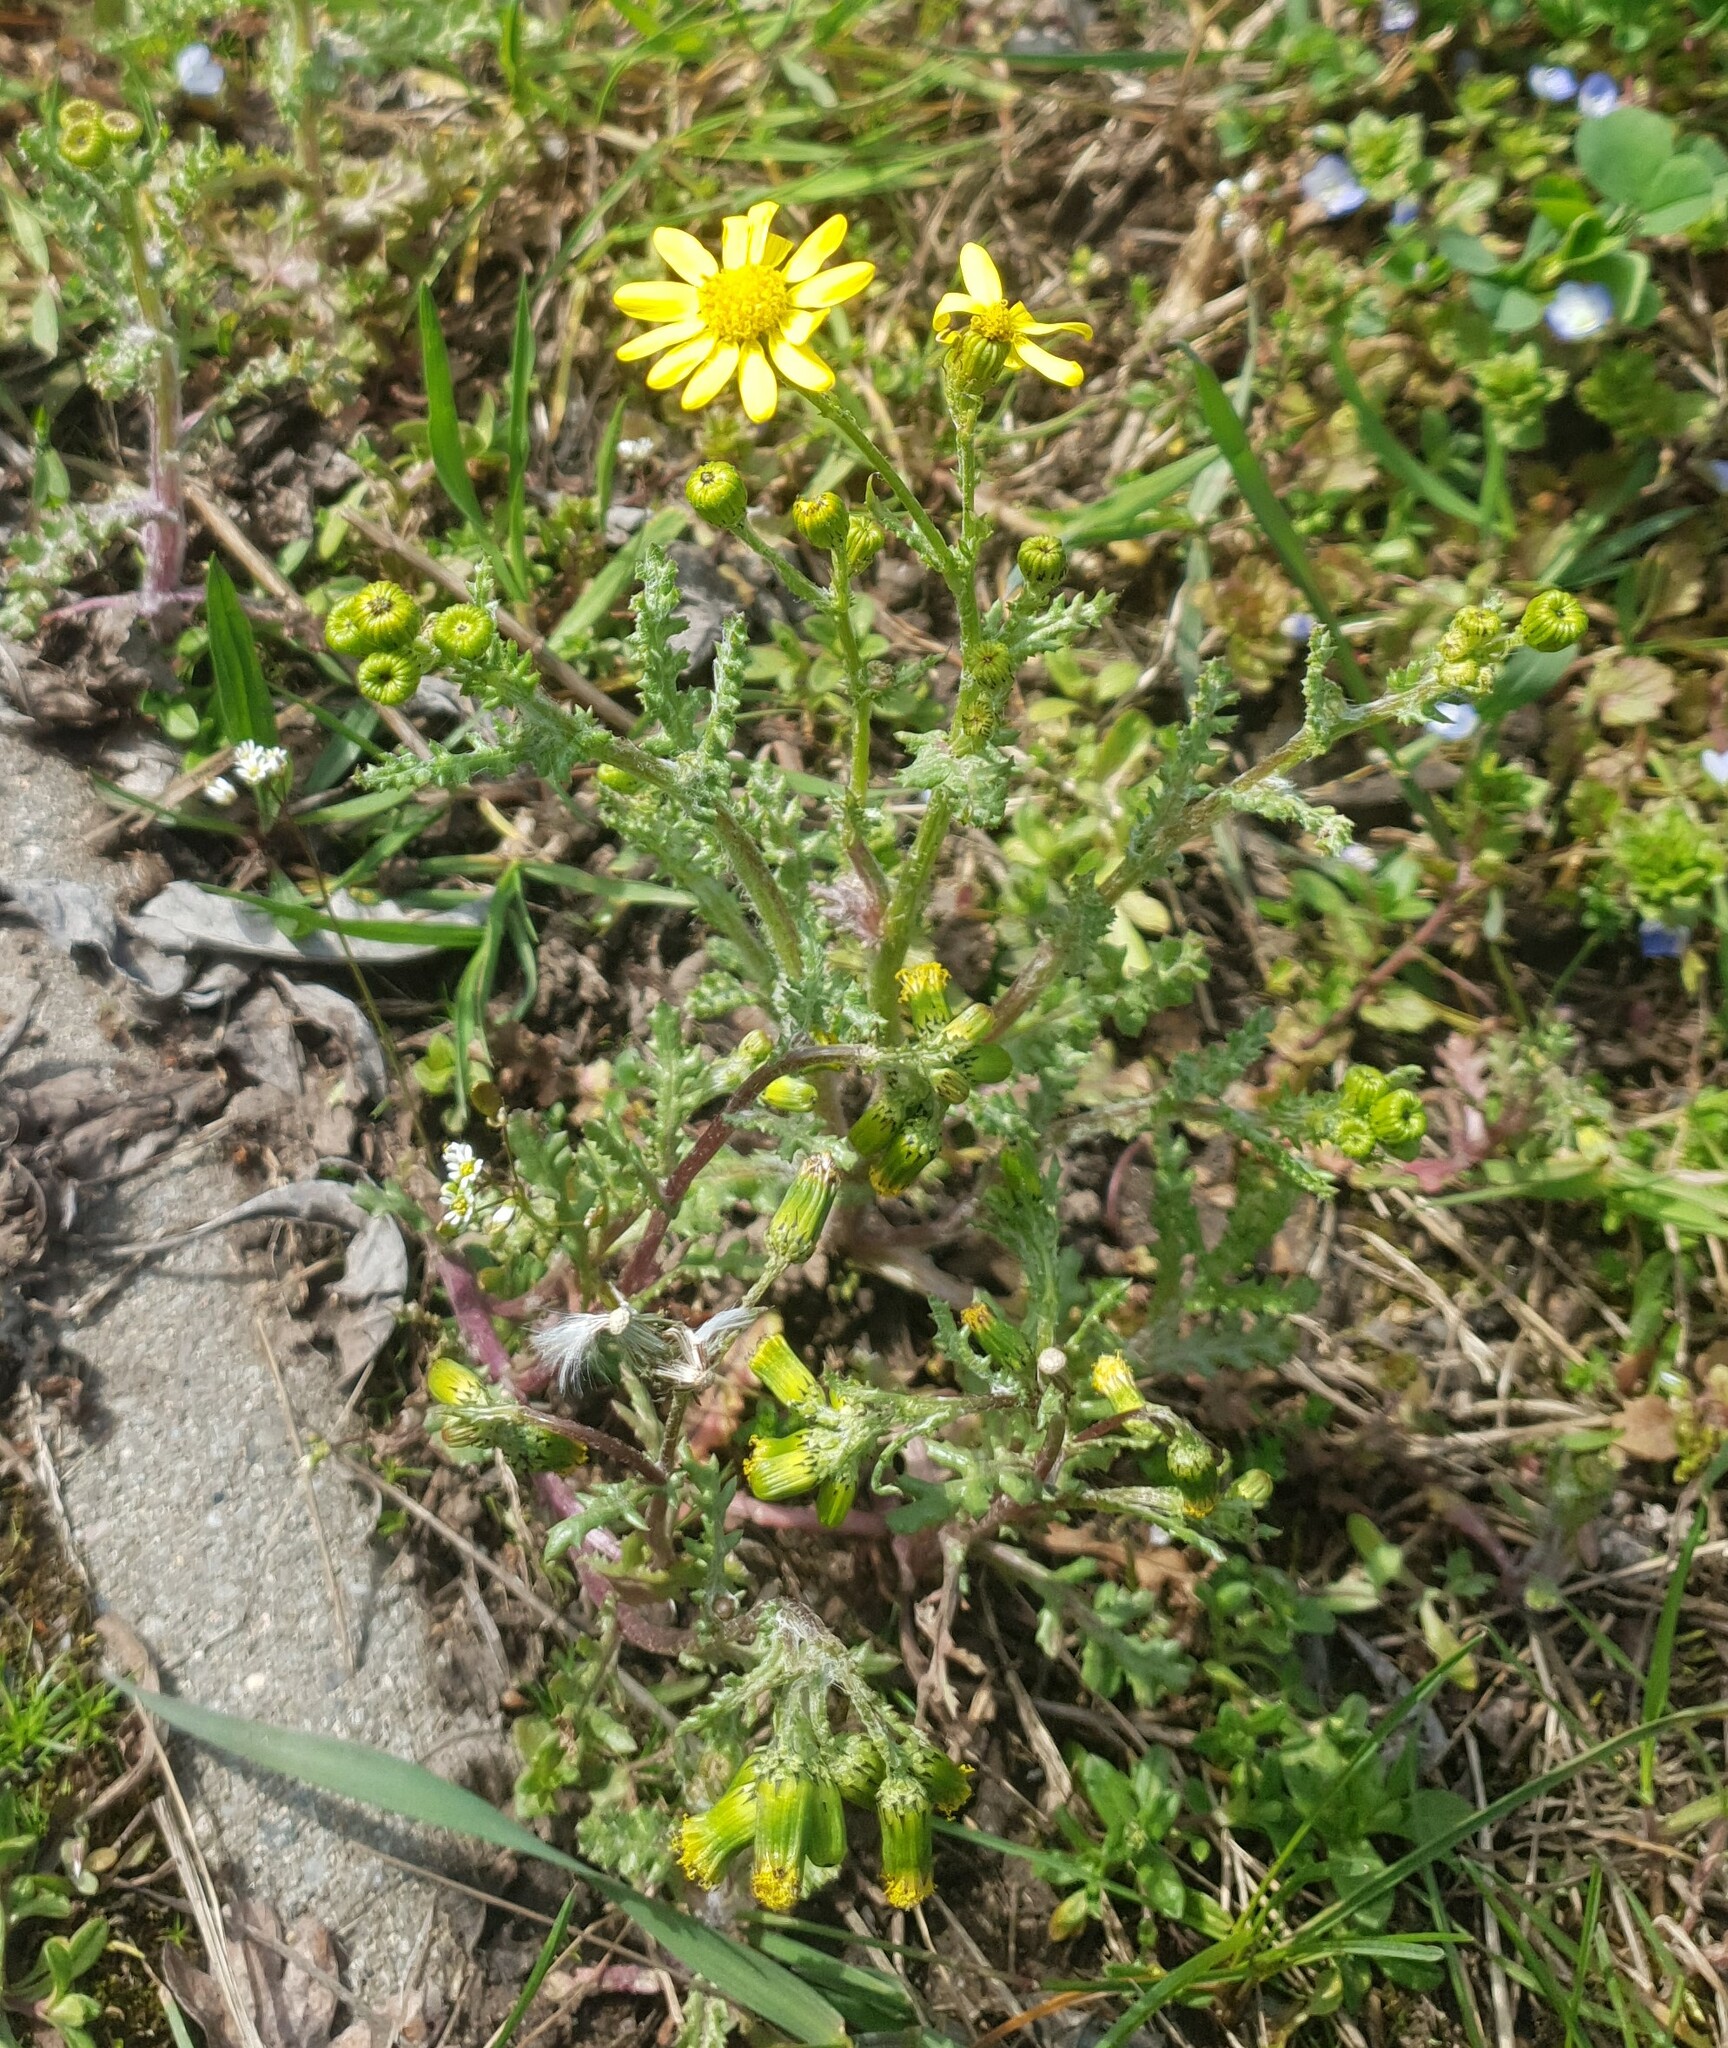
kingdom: Plantae
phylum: Tracheophyta
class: Magnoliopsida
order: Asterales
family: Asteraceae
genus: Senecio
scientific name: Senecio vernalis
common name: Eastern groundsel
